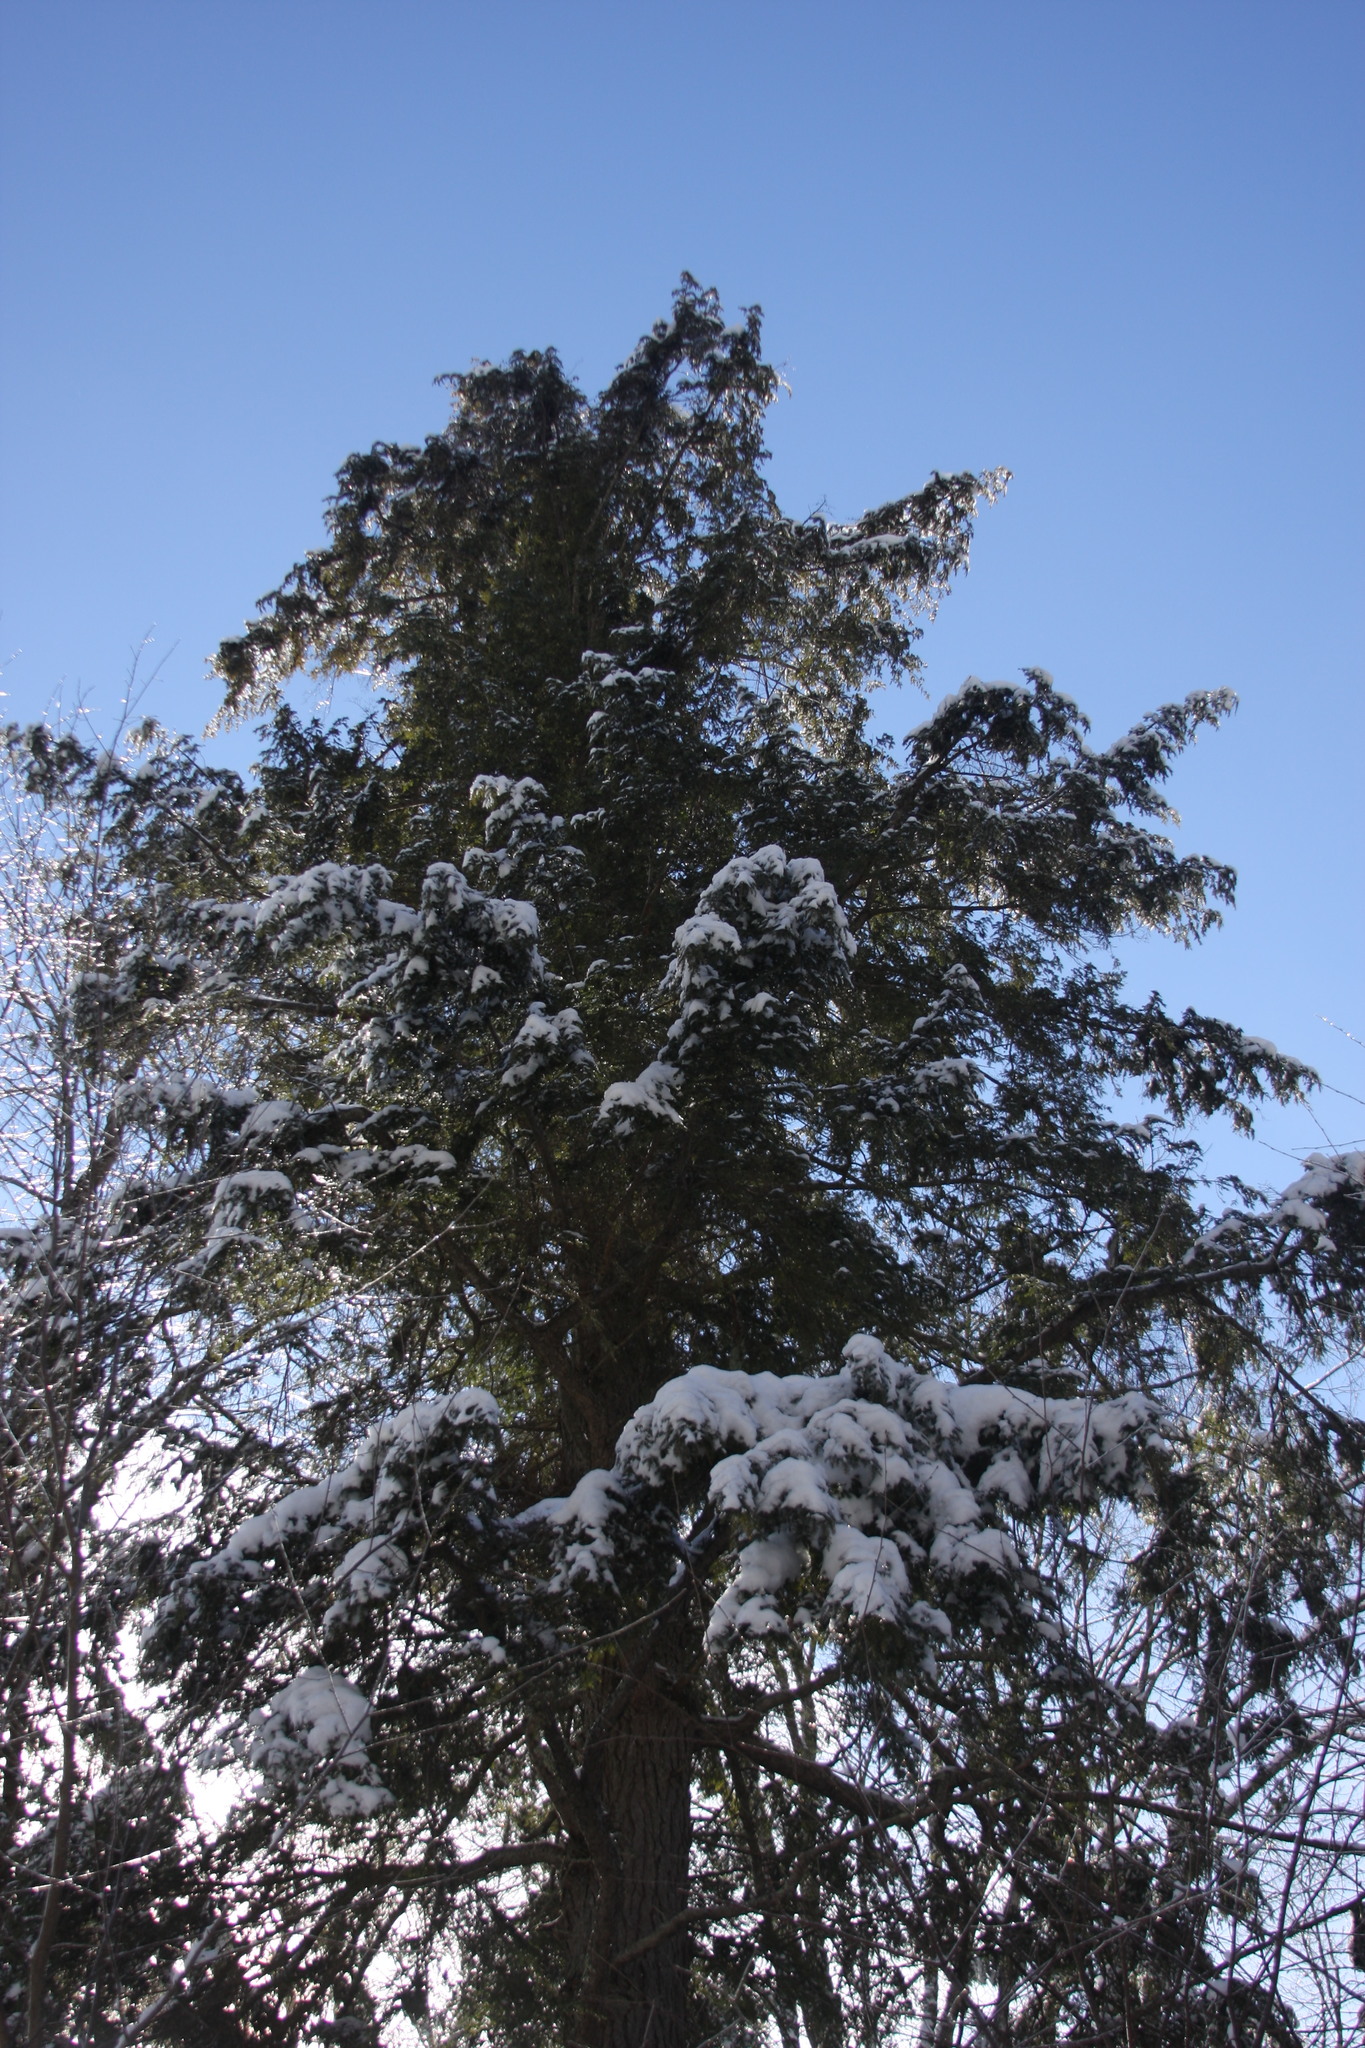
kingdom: Plantae
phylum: Tracheophyta
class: Pinopsida
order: Pinales
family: Pinaceae
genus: Tsuga
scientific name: Tsuga canadensis
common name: Eastern hemlock
